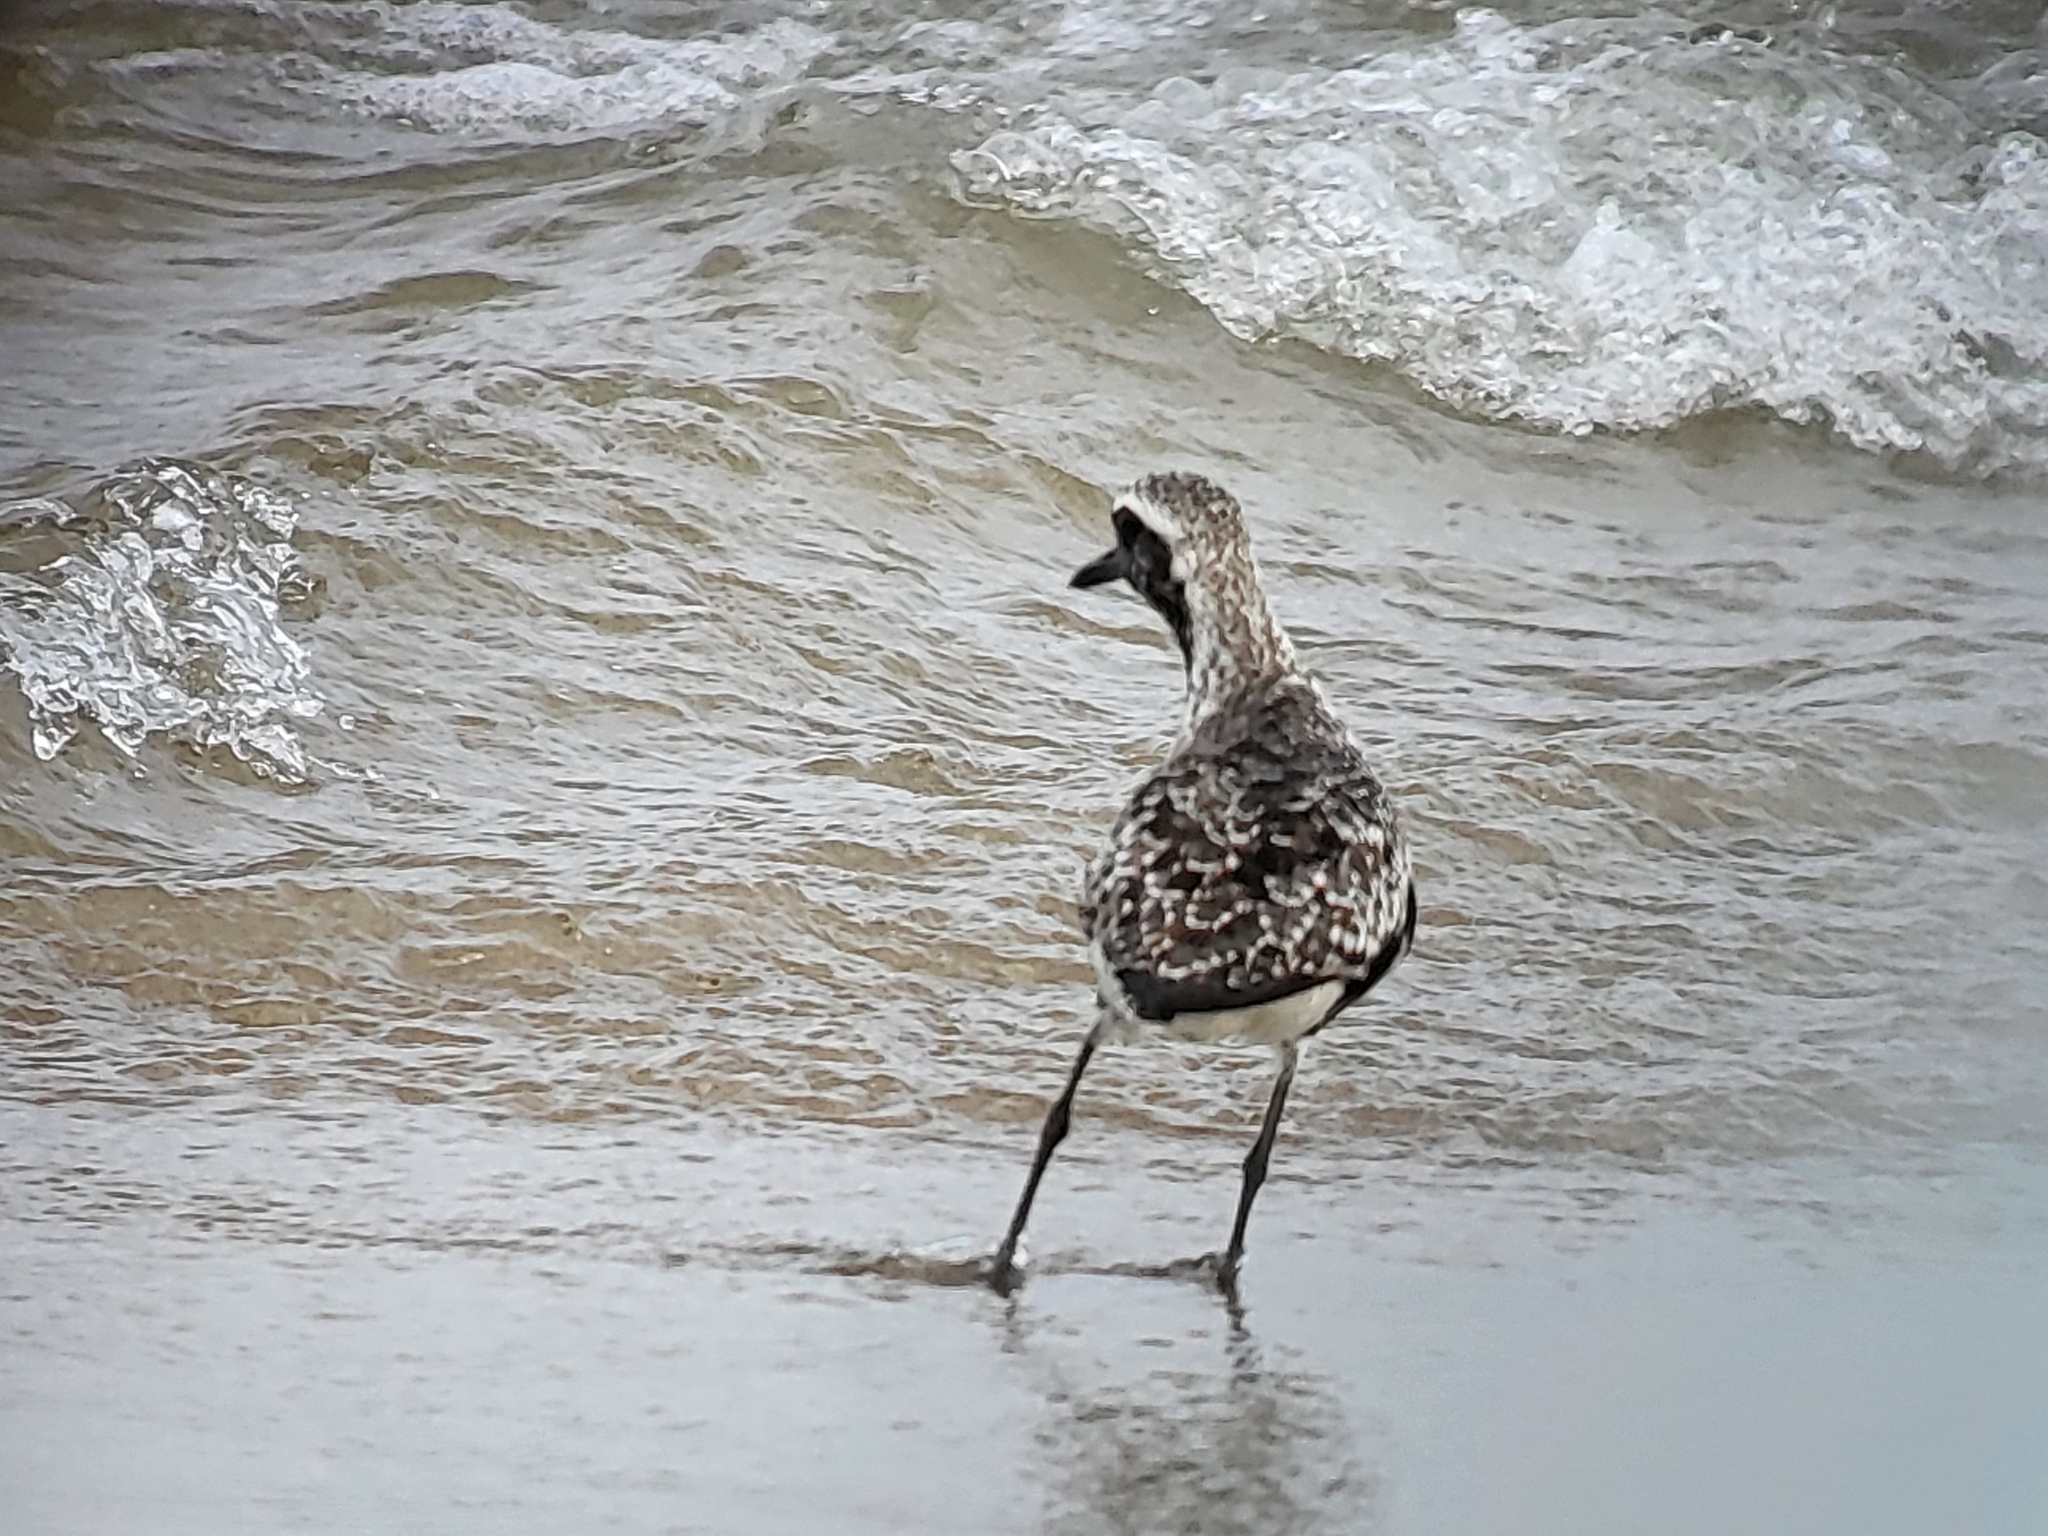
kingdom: Animalia
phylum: Chordata
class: Aves
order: Charadriiformes
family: Charadriidae
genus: Pluvialis
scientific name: Pluvialis squatarola
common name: Grey plover
